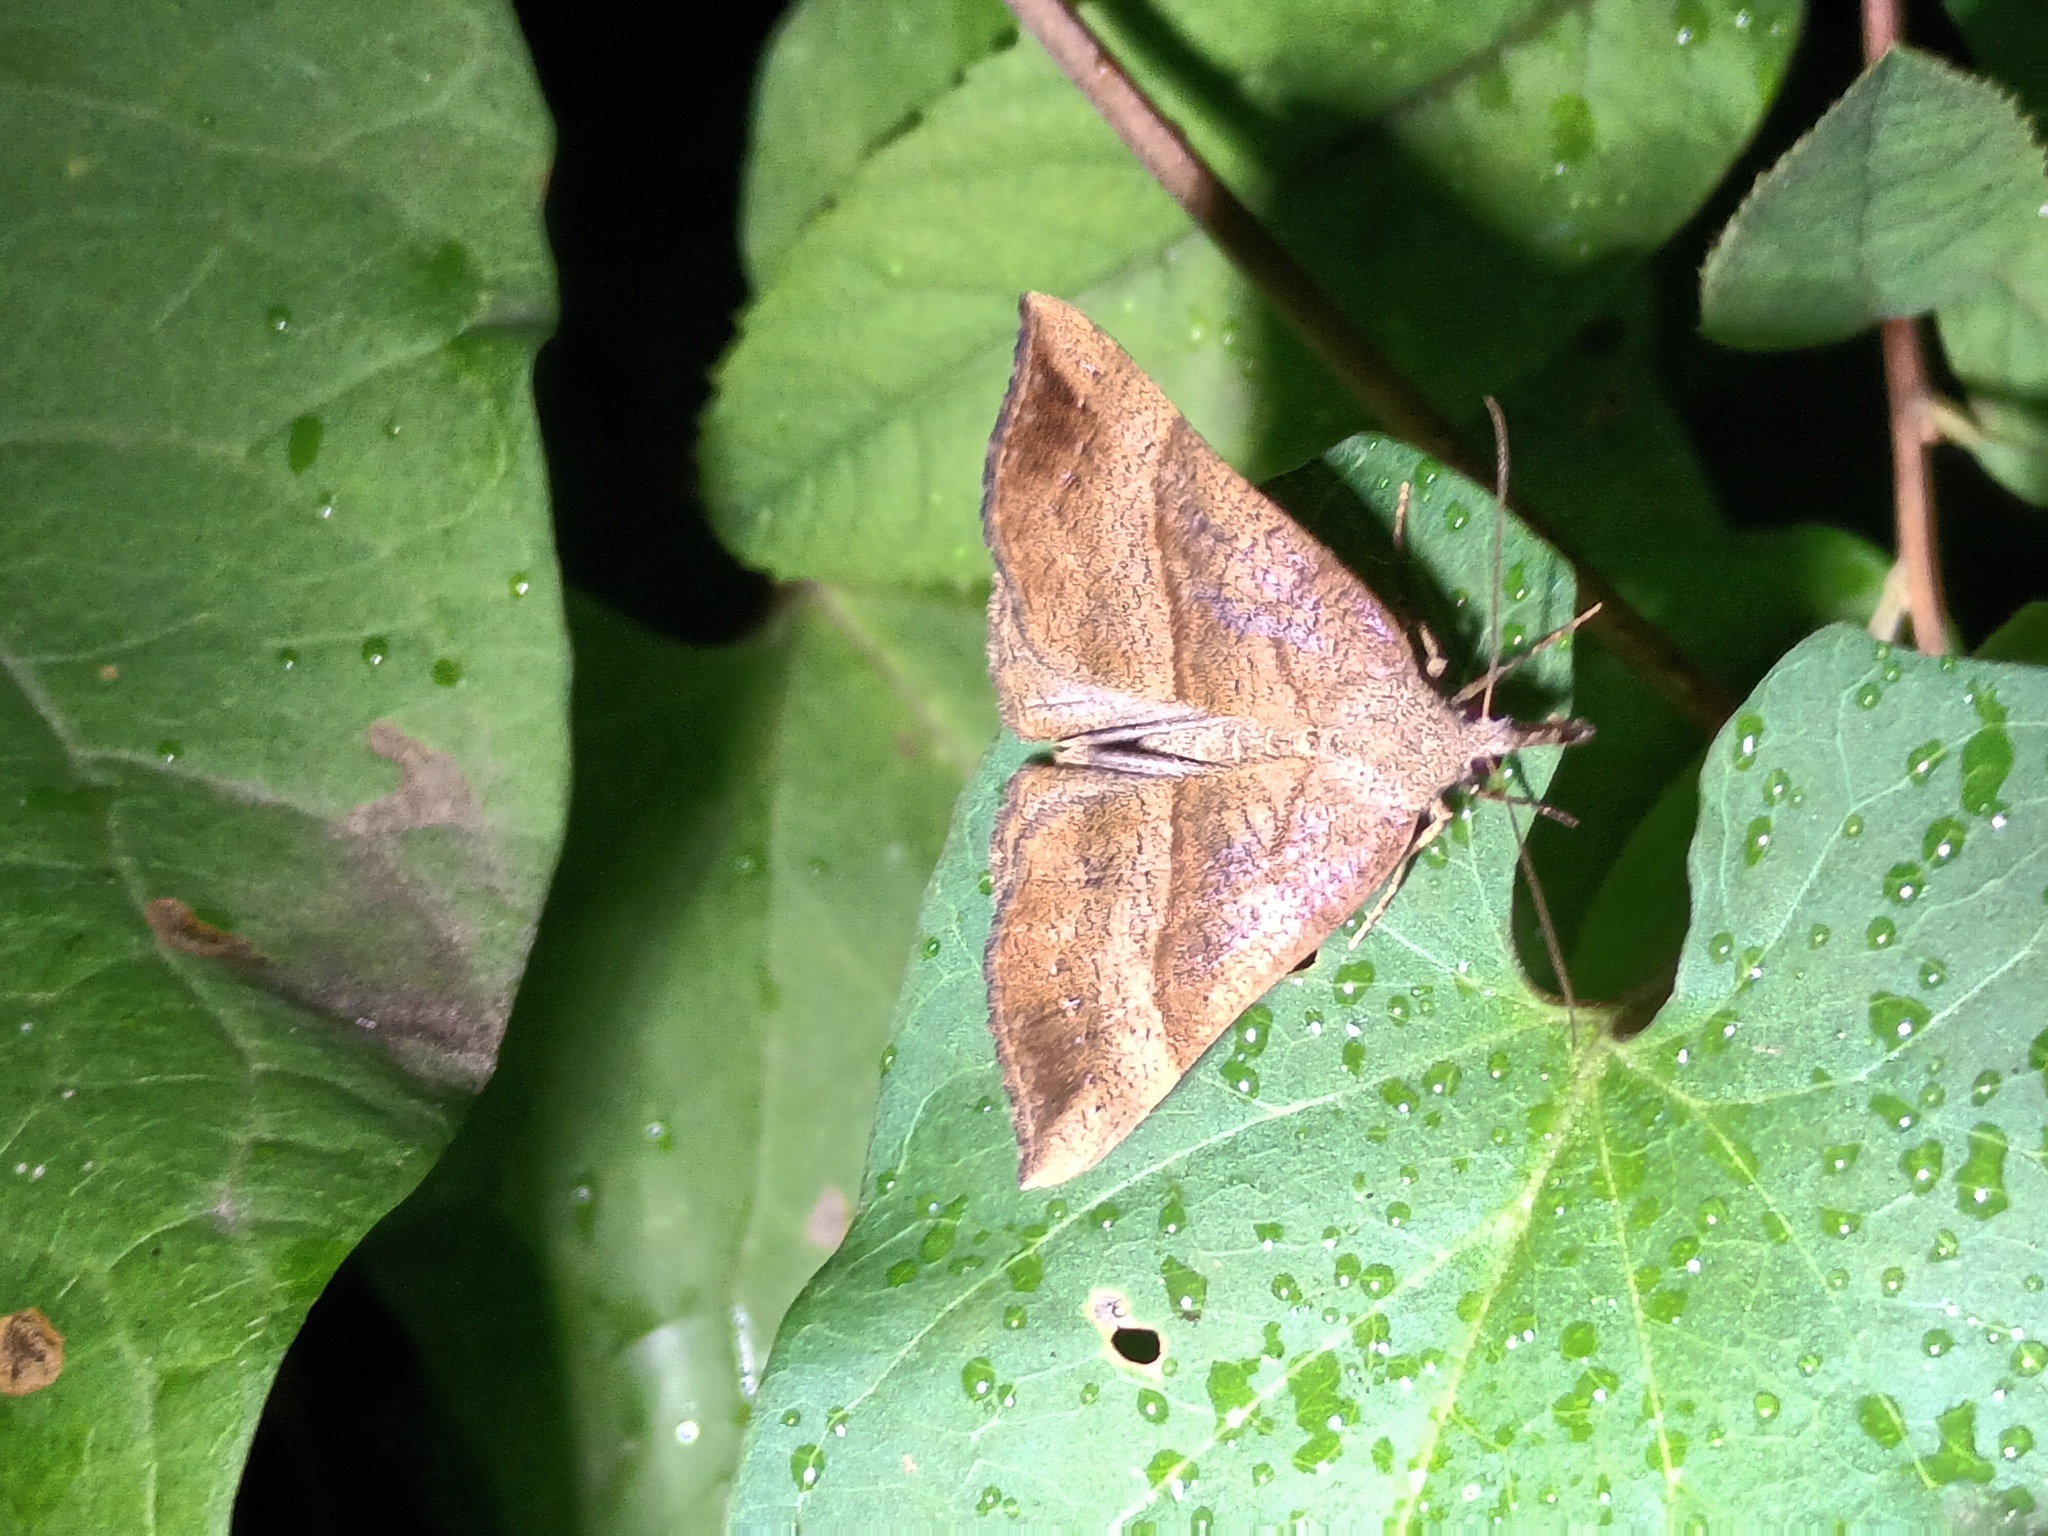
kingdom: Animalia
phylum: Arthropoda
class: Insecta
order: Lepidoptera
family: Erebidae
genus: Hypena
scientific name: Hypena proboscidalis
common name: Snout
